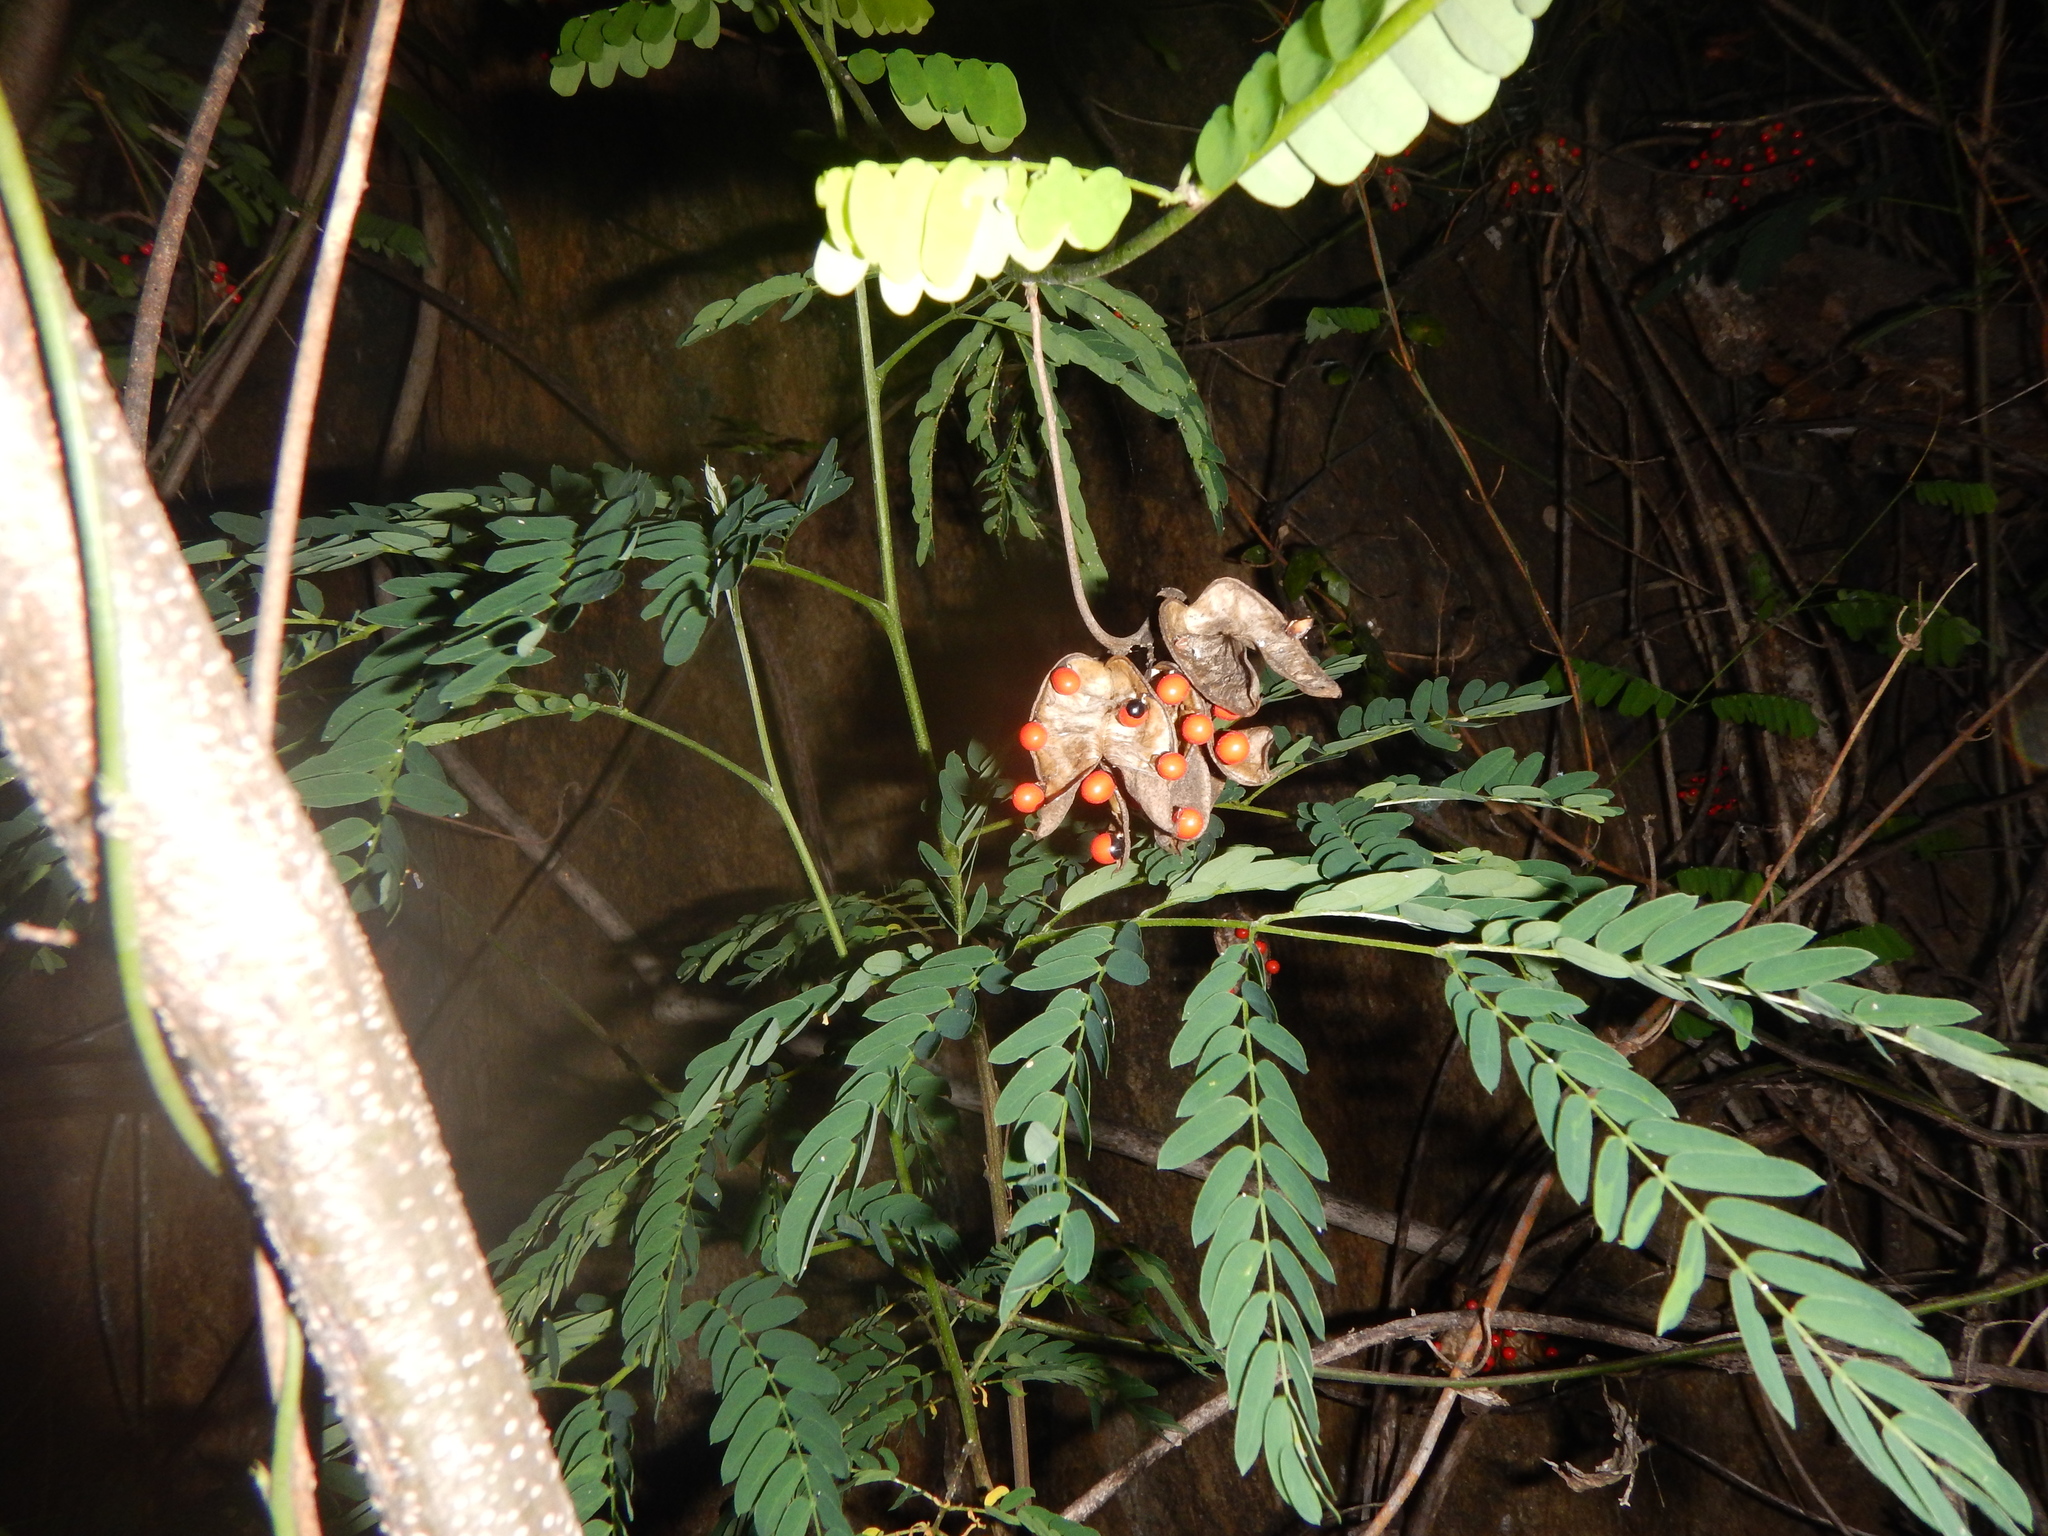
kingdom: Plantae
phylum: Tracheophyta
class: Magnoliopsida
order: Fabales
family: Fabaceae
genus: Abrus
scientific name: Abrus precatorius
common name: Rosarypea
